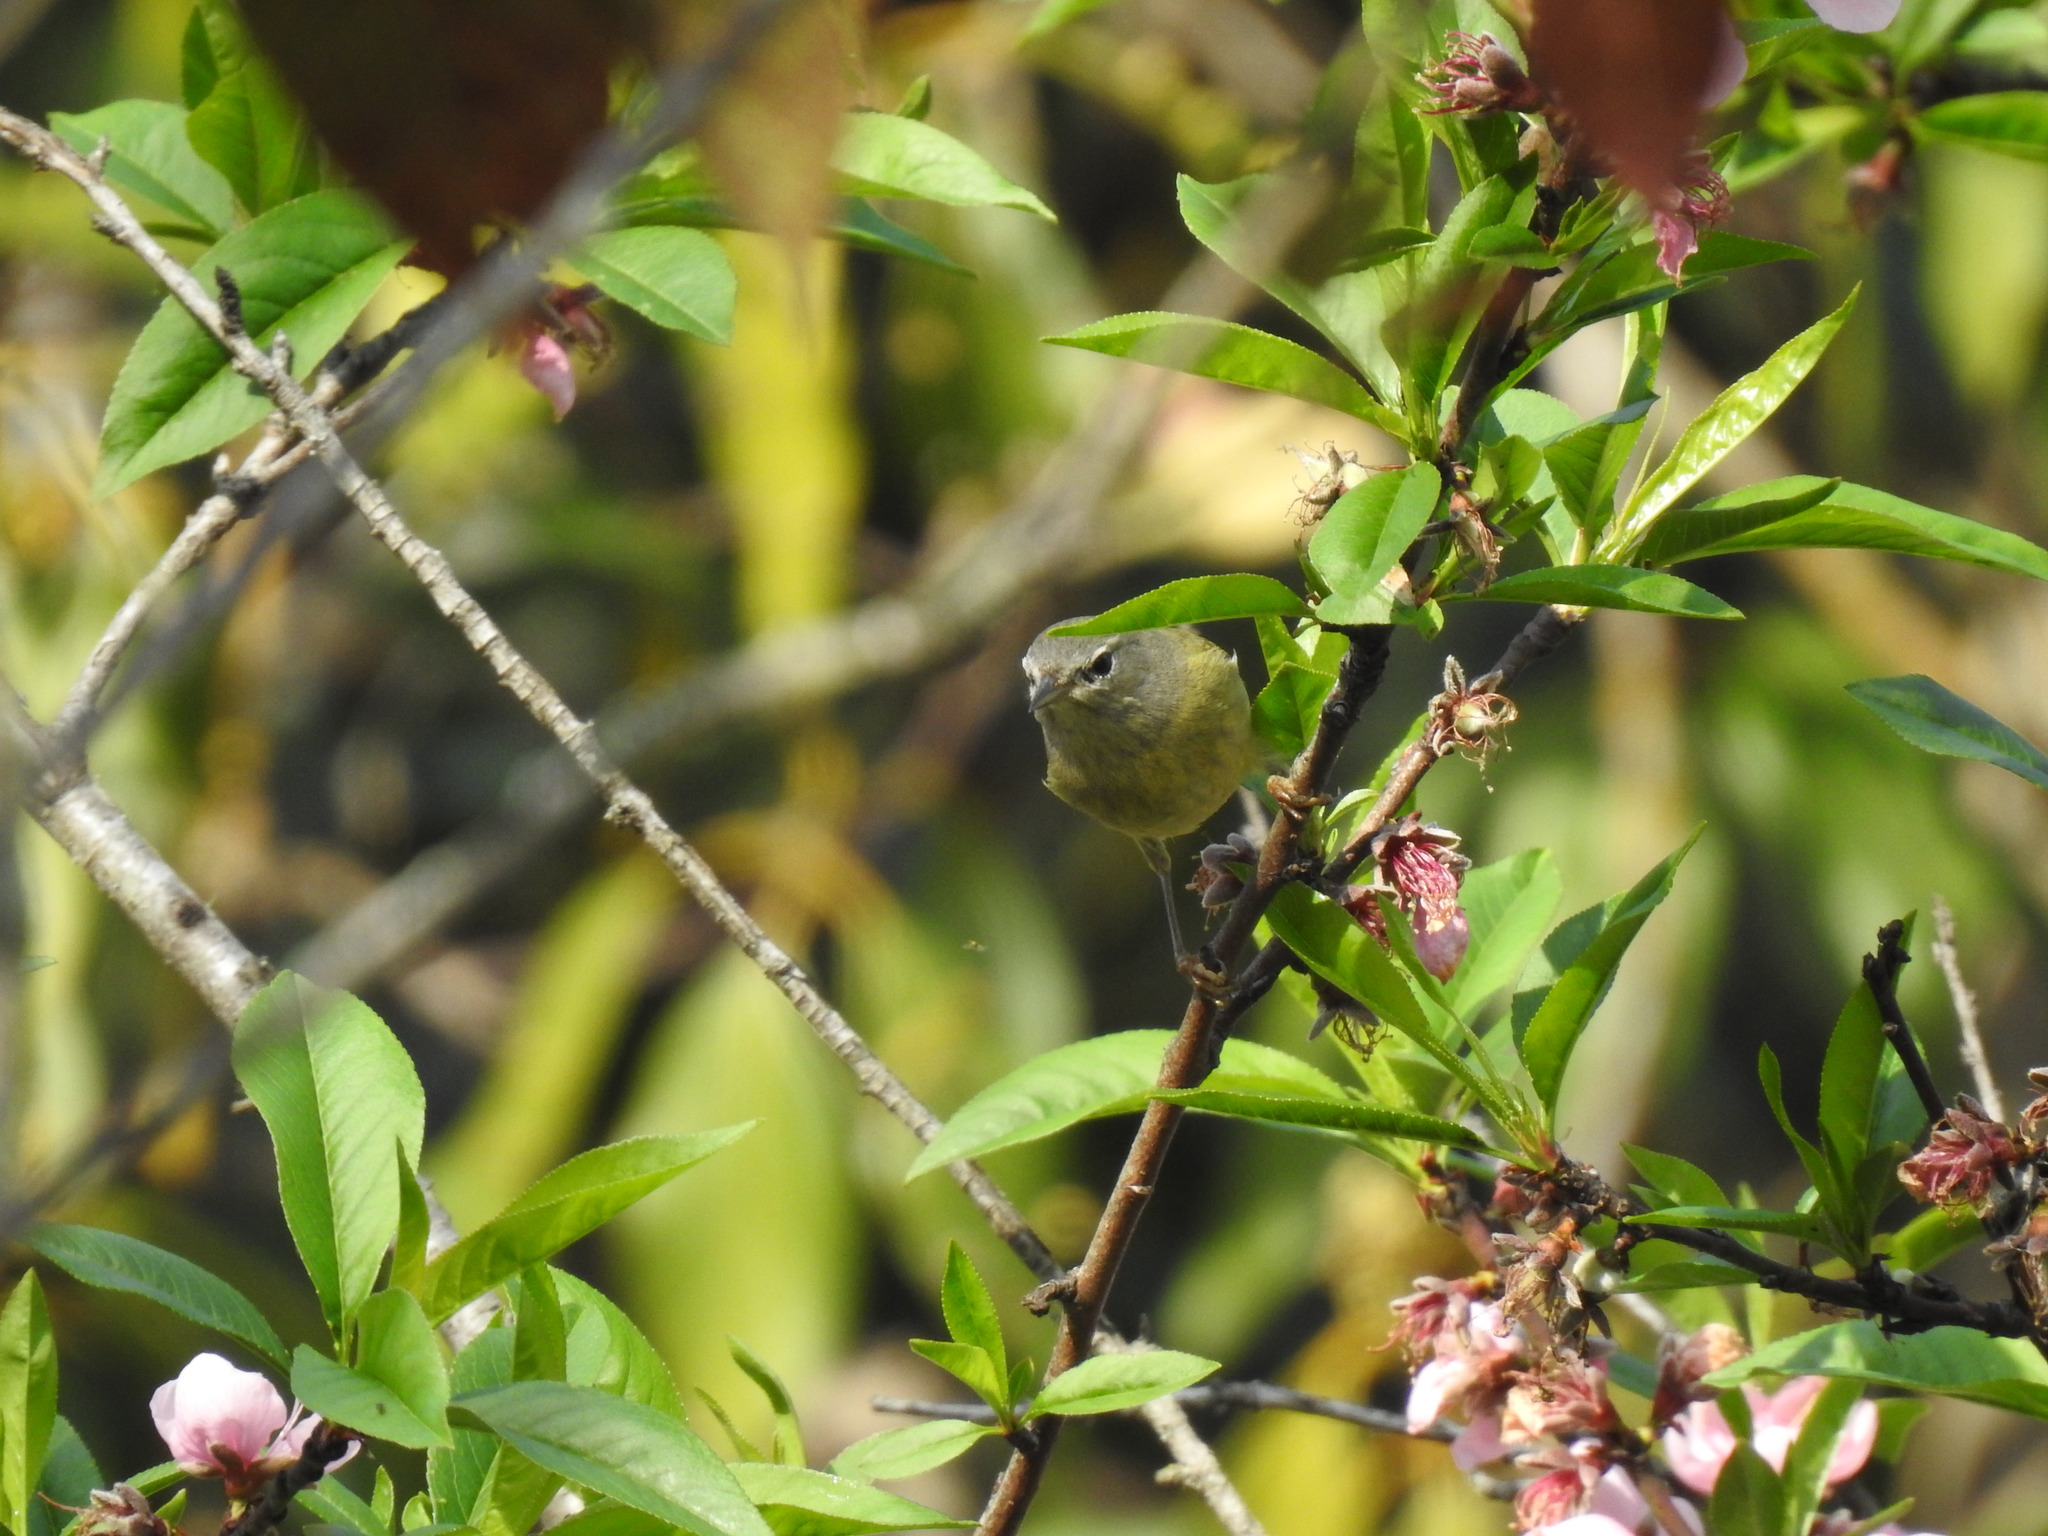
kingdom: Animalia
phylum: Chordata
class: Aves
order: Passeriformes
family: Parulidae
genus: Leiothlypis
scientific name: Leiothlypis celata
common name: Orange-crowned warbler
